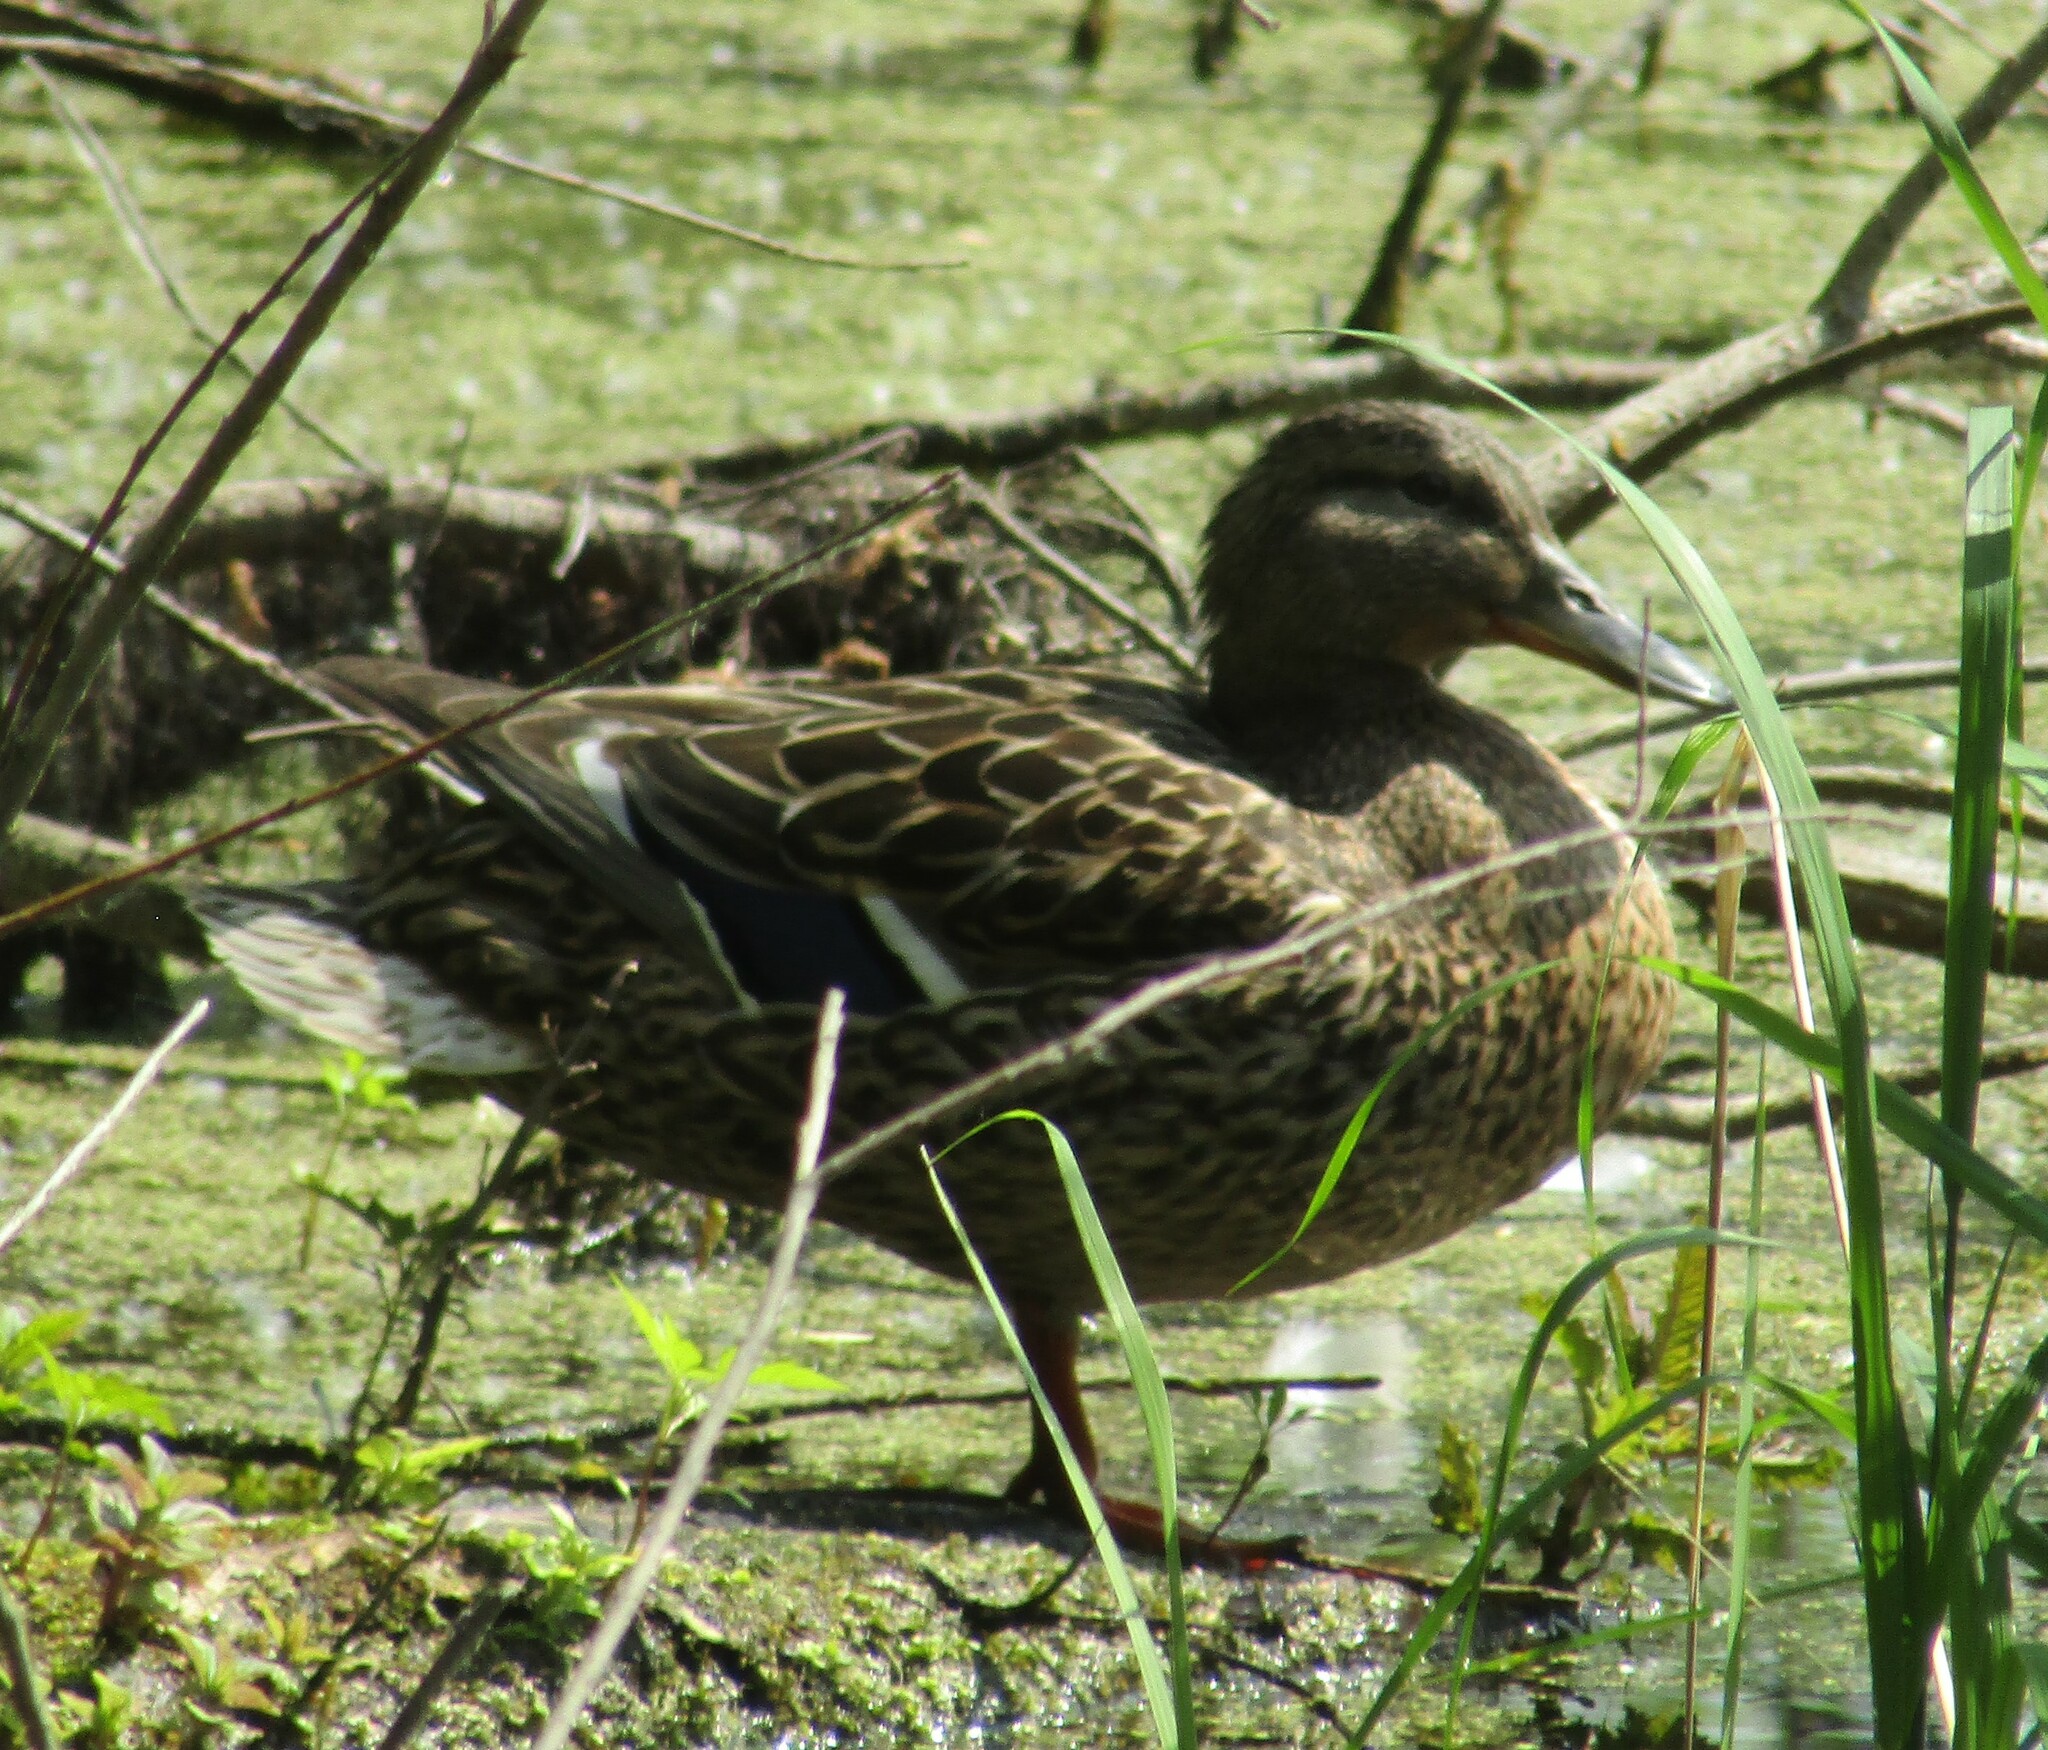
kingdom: Animalia
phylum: Chordata
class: Aves
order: Anseriformes
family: Anatidae
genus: Anas
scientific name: Anas platyrhynchos
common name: Mallard
